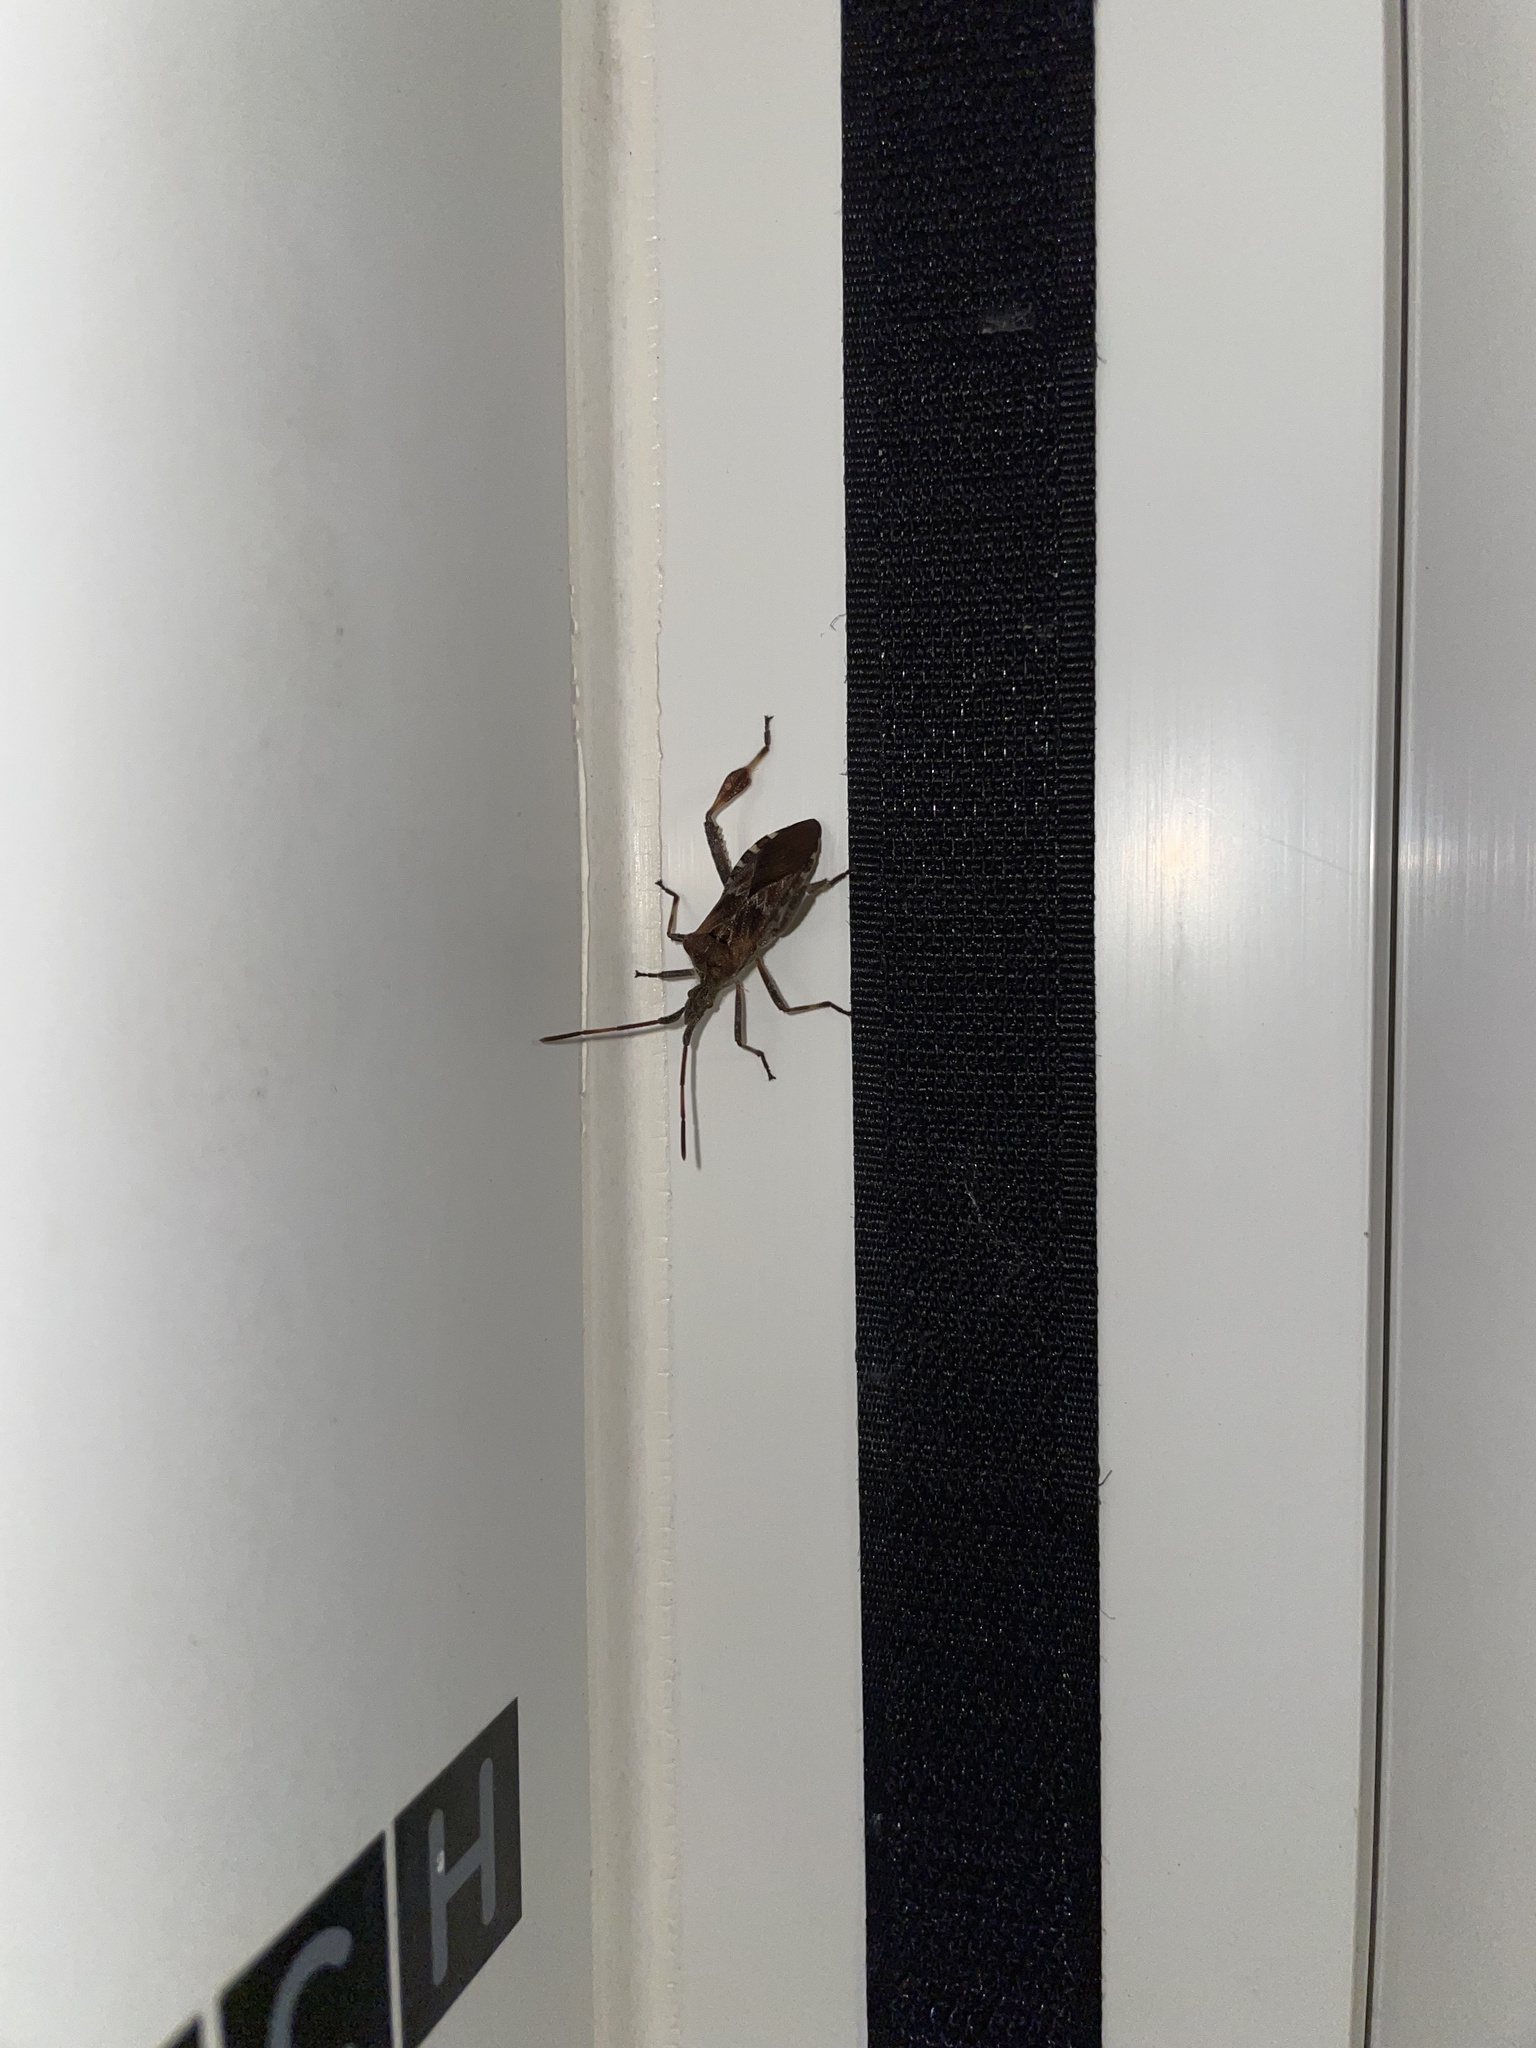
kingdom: Animalia
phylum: Arthropoda
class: Insecta
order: Hemiptera
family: Coreidae
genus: Leptoglossus
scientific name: Leptoglossus occidentalis
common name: Western conifer-seed bug
